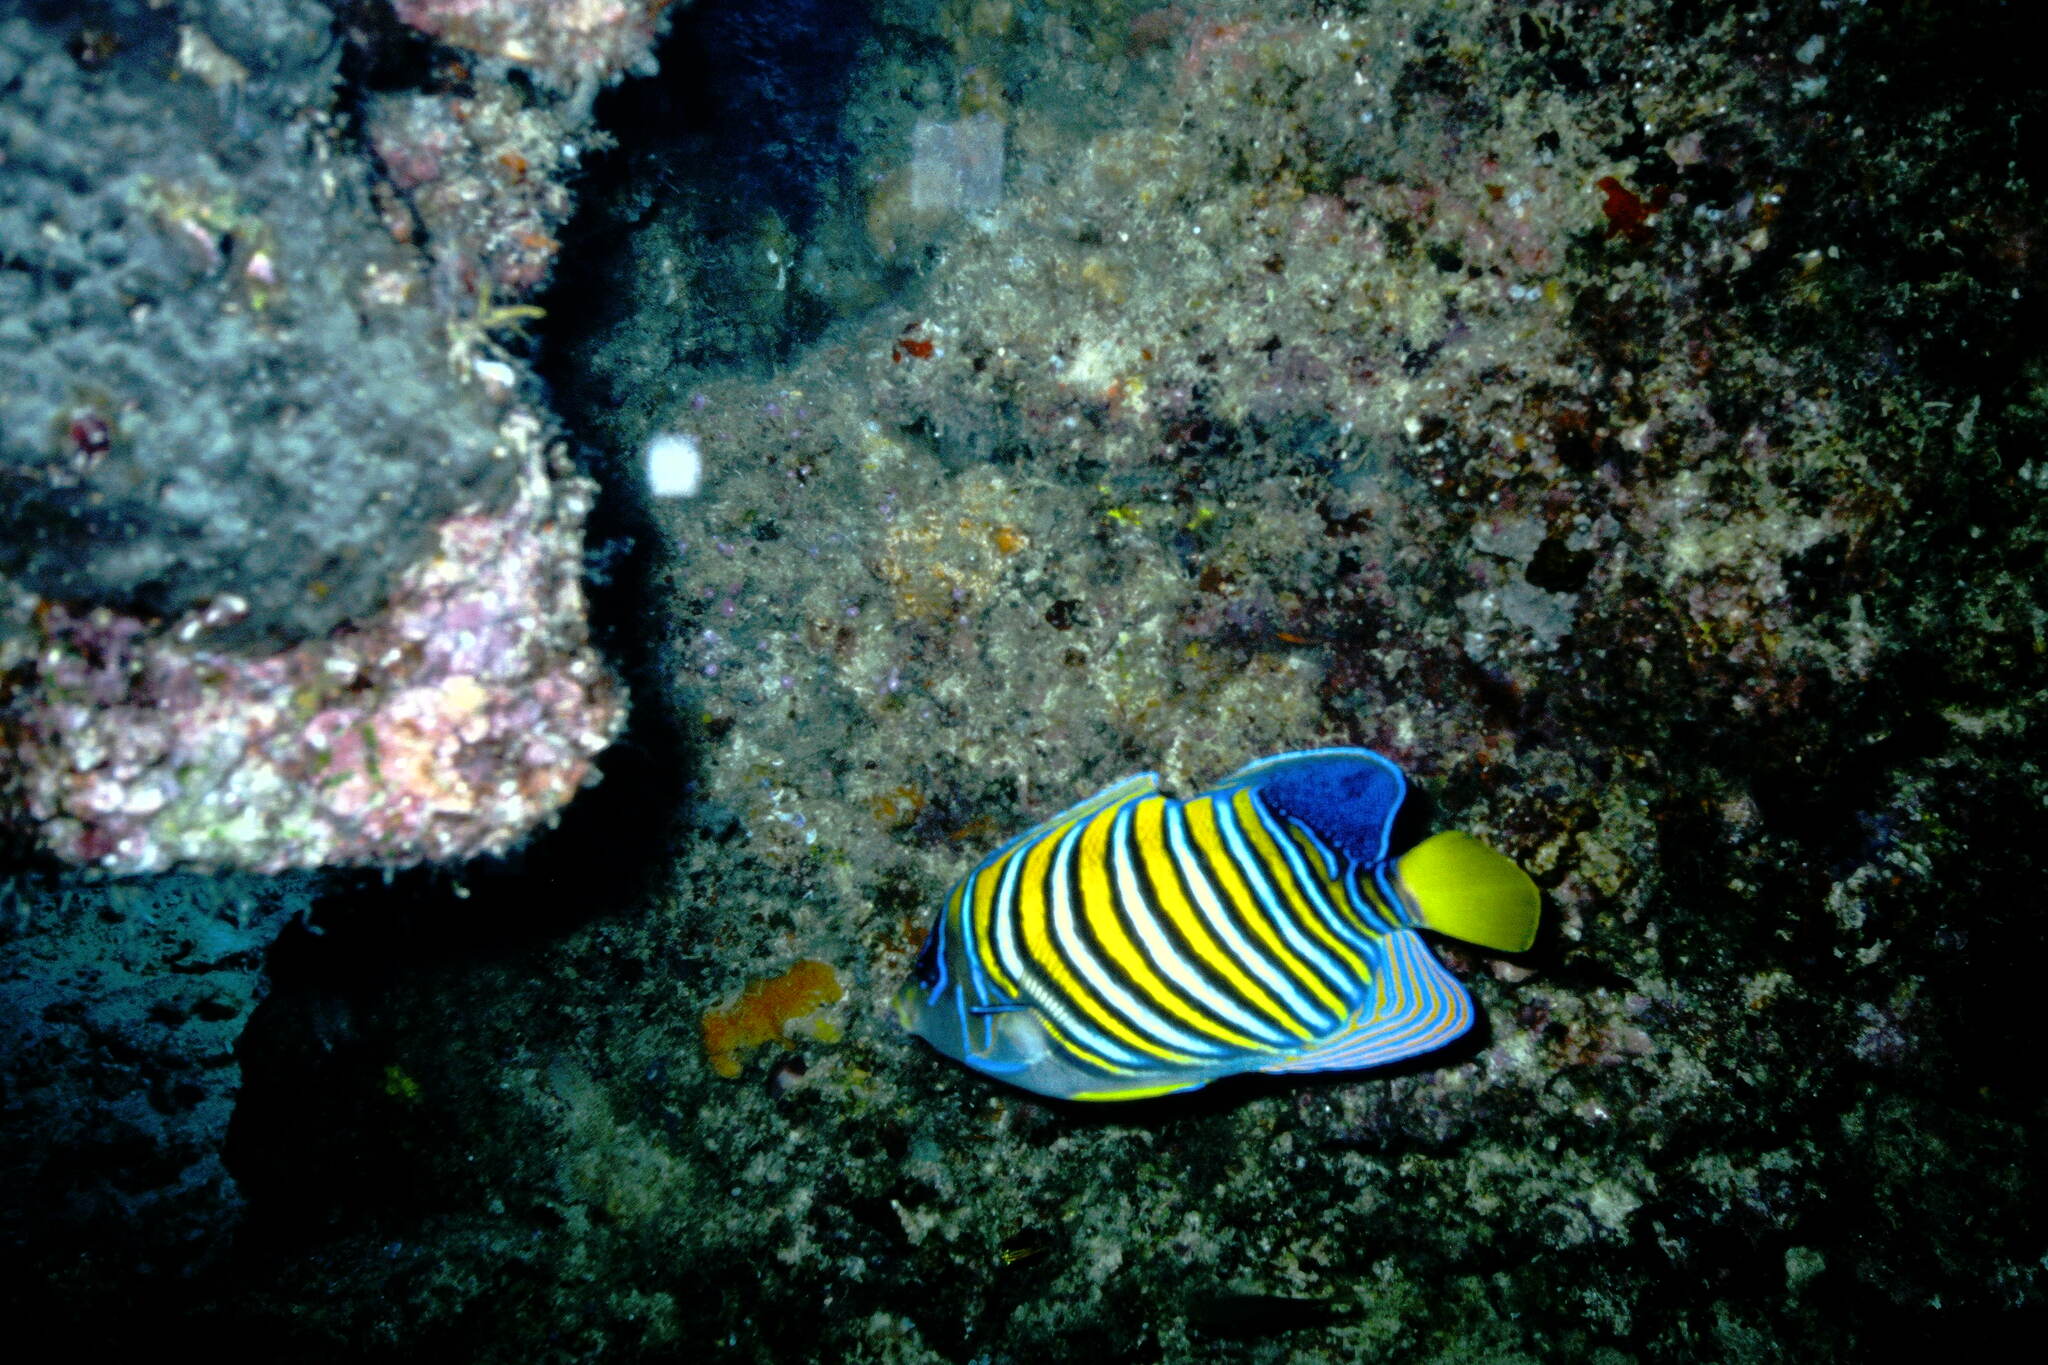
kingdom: Animalia
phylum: Chordata
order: Perciformes
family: Pomacanthidae
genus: Pygoplites
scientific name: Pygoplites diacanthus
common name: Regal angelfish
